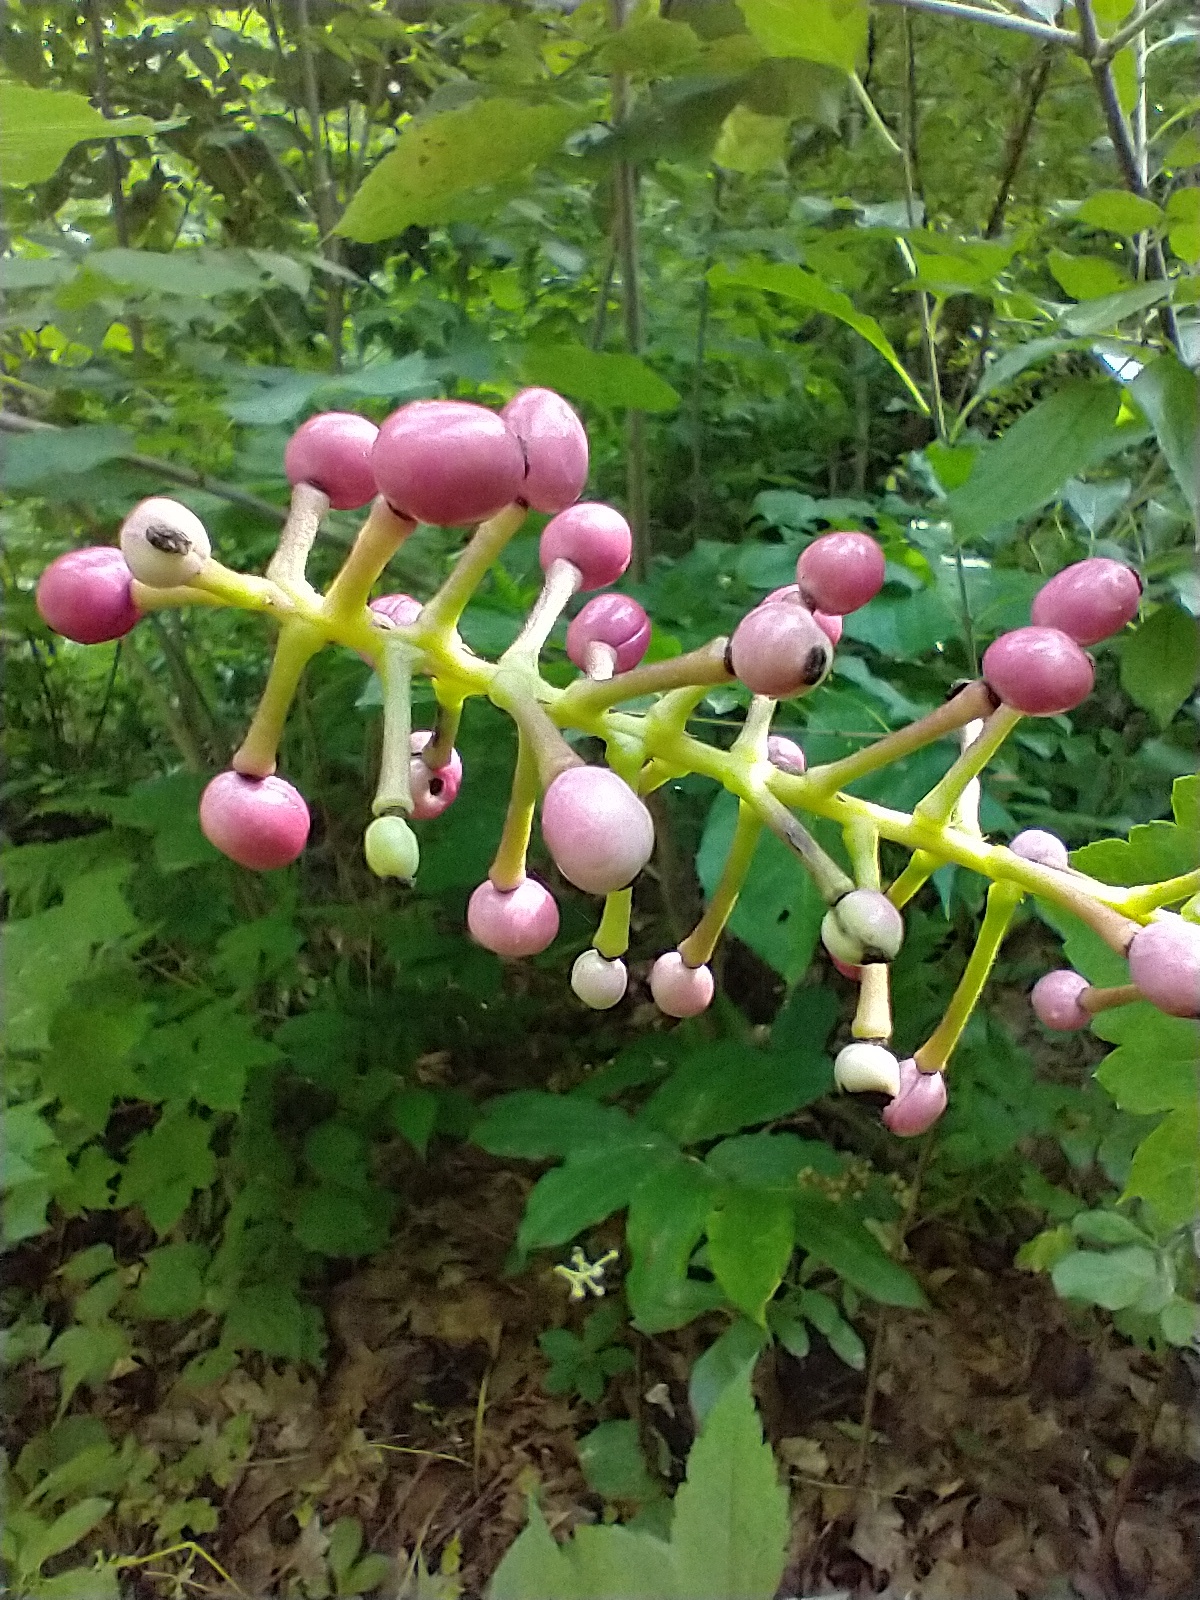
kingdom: Plantae
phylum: Tracheophyta
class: Magnoliopsida
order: Ranunculales
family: Ranunculaceae
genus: Actaea
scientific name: Actaea ludovici
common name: Ludovic's baneberry
